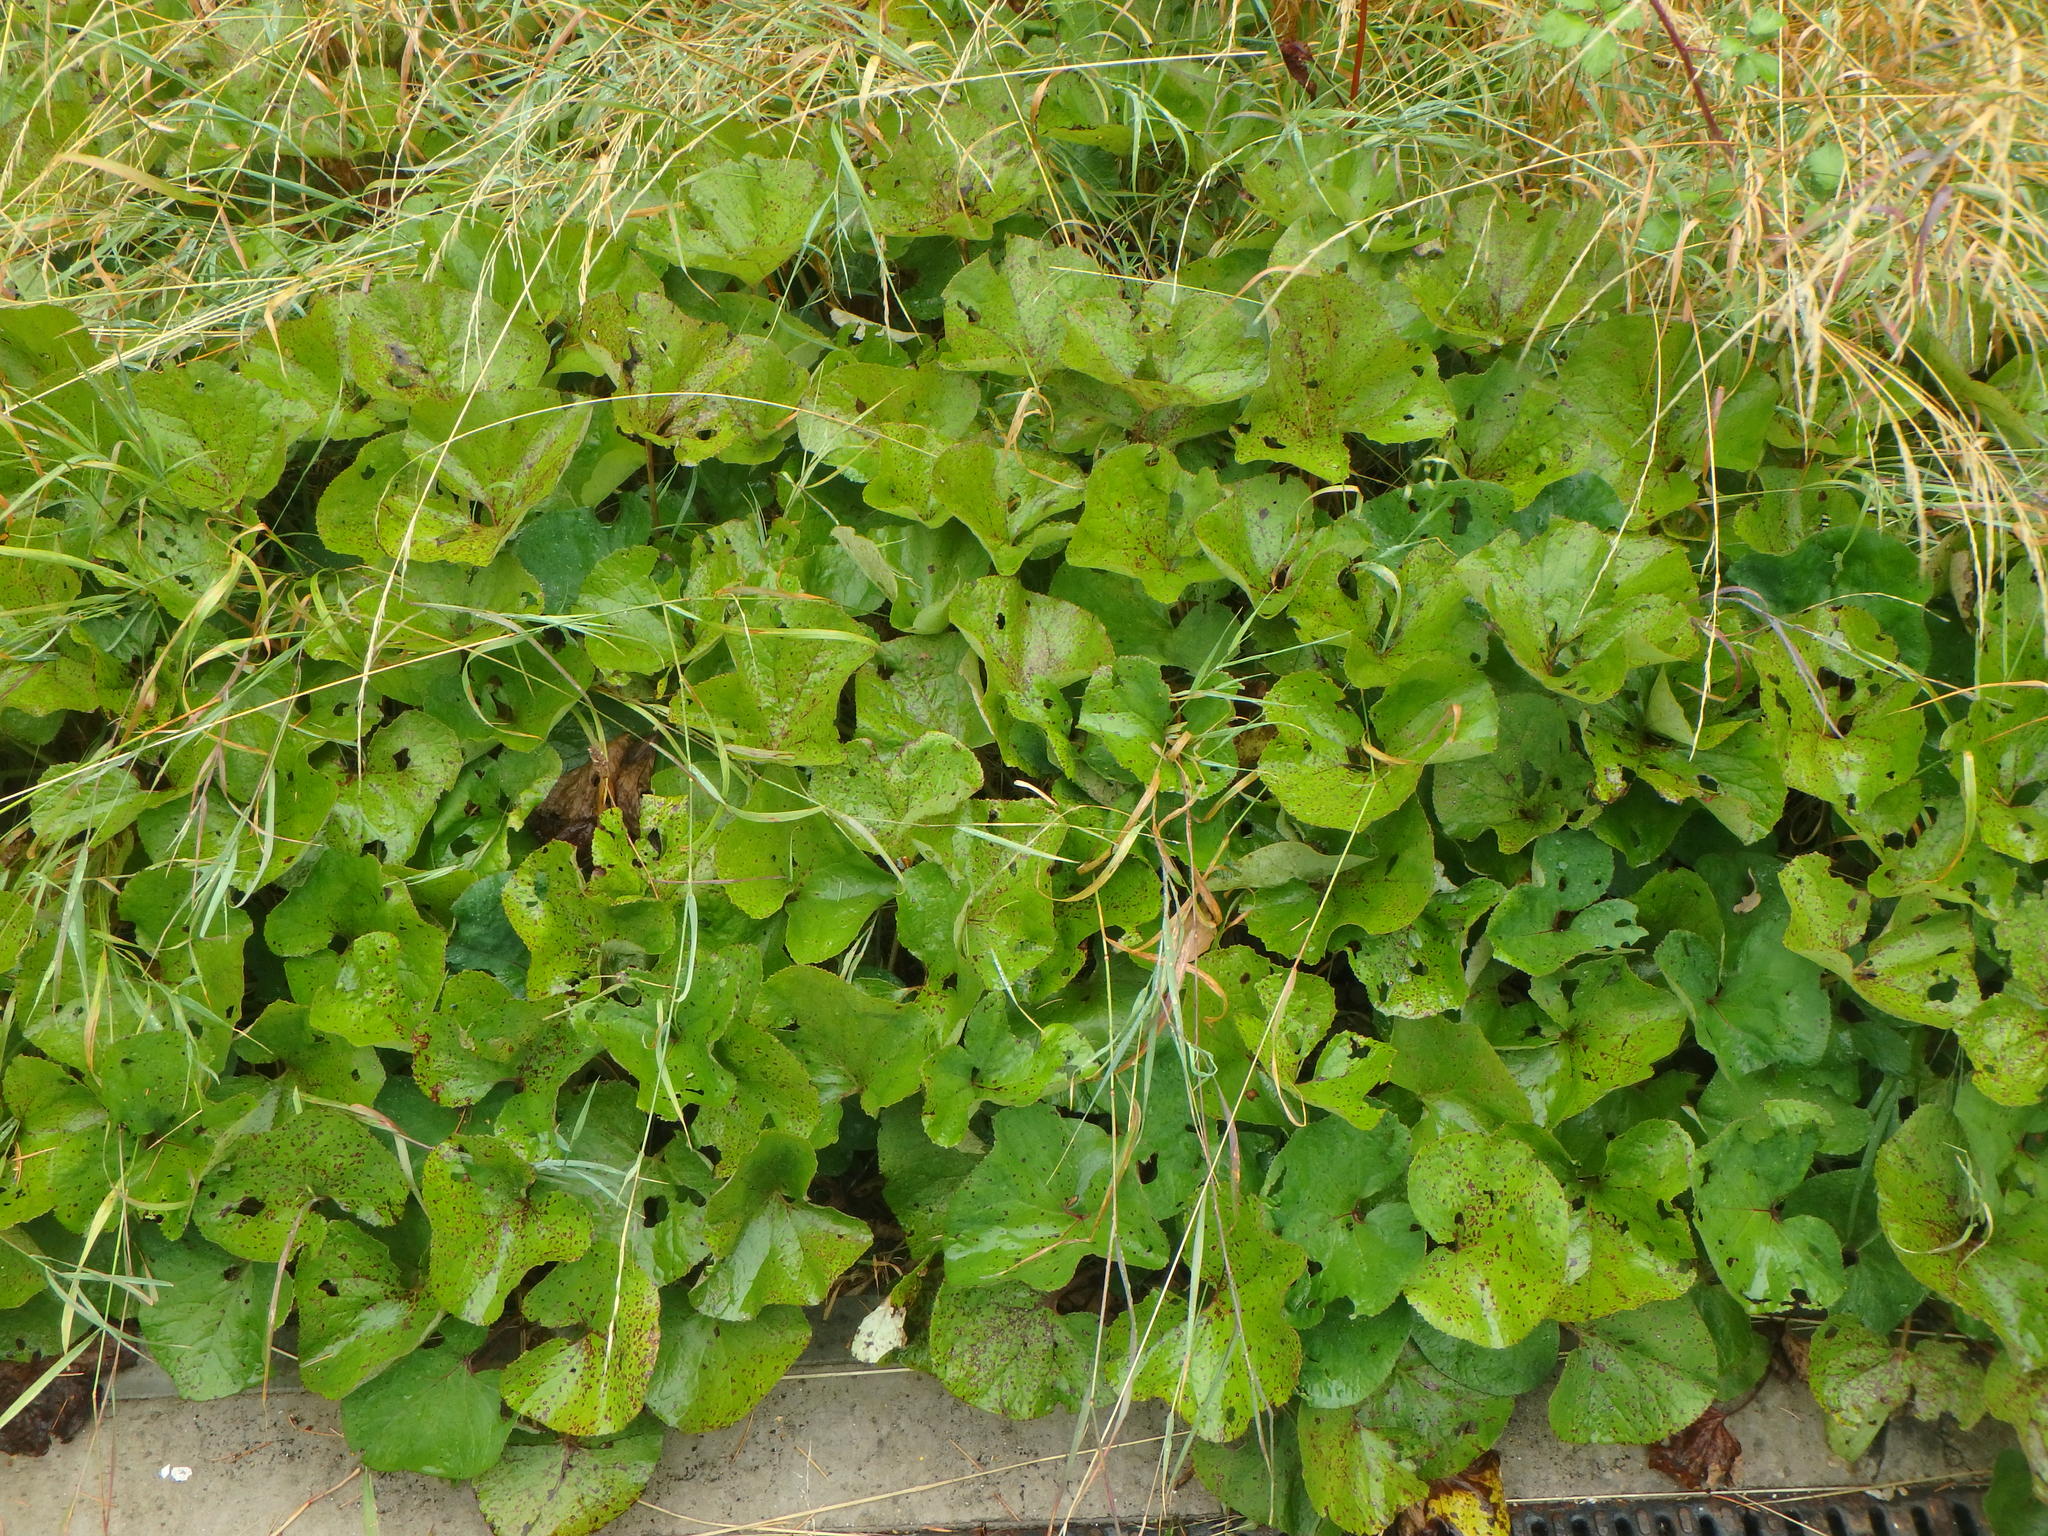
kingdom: Plantae
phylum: Tracheophyta
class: Magnoliopsida
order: Asterales
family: Asteraceae
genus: Petasites
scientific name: Petasites pyrenaicus
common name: Winter heliotrope
